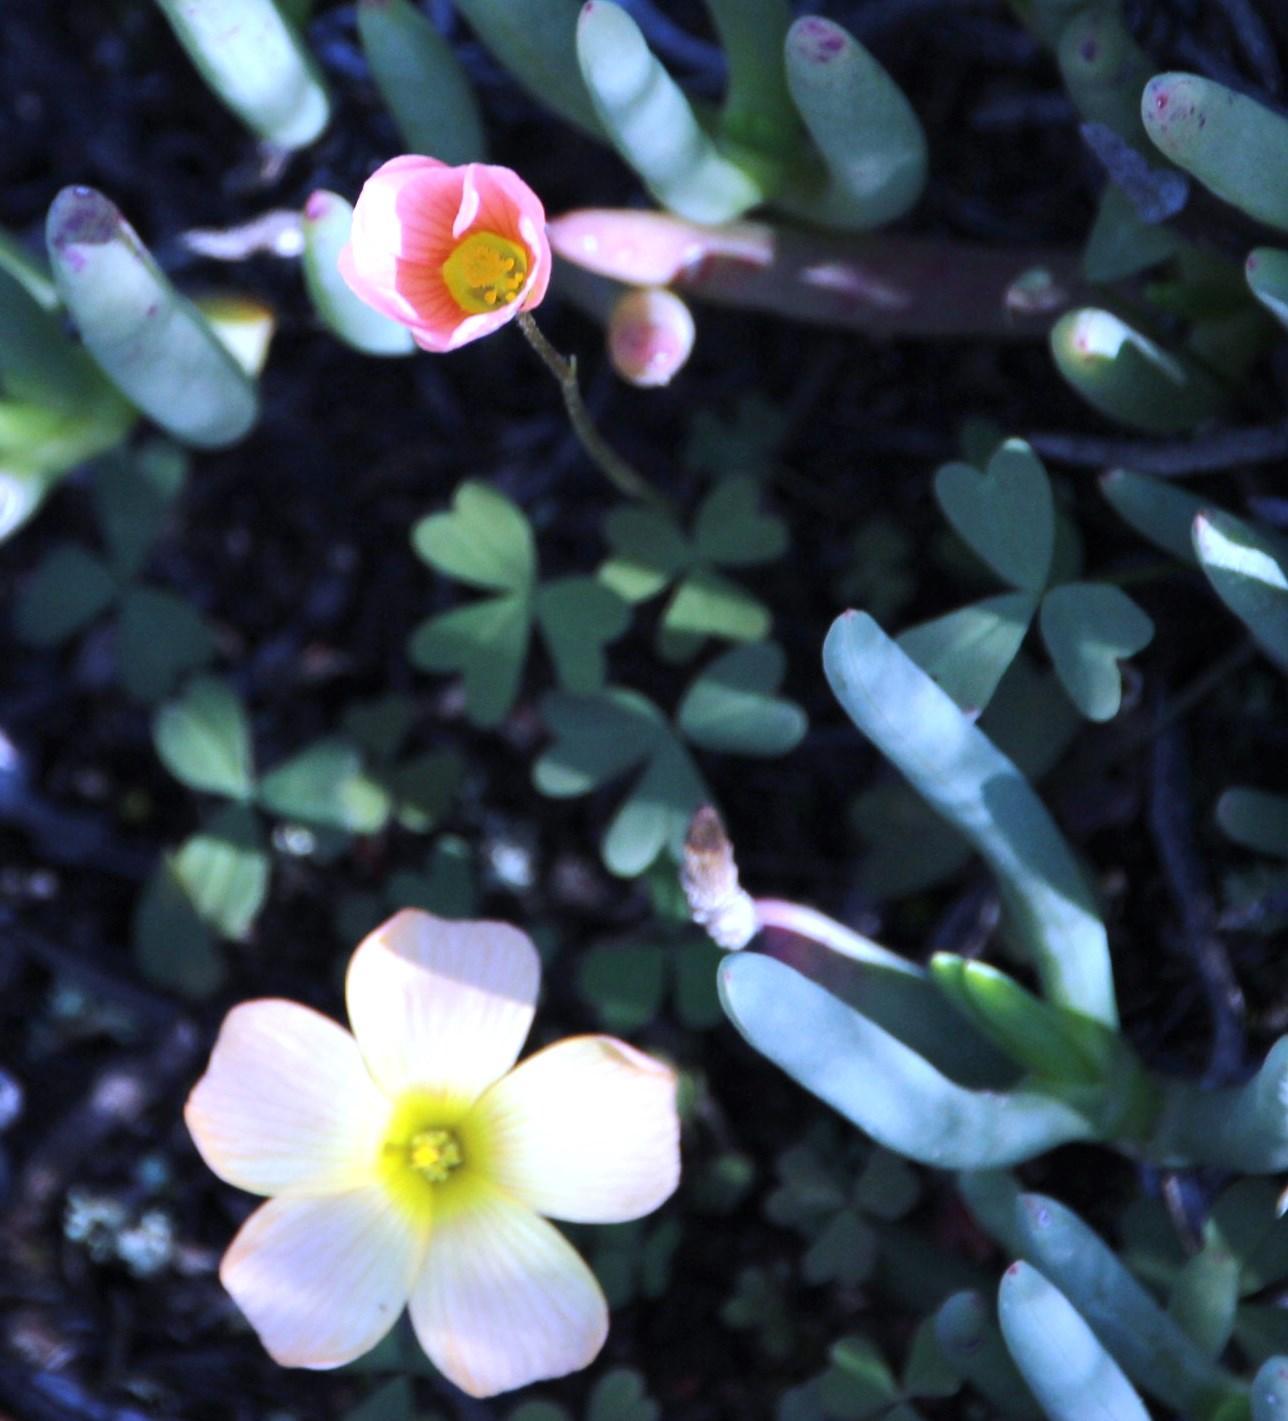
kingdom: Plantae
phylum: Tracheophyta
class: Magnoliopsida
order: Oxalidales
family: Oxalidaceae
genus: Oxalis
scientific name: Oxalis obtusa
